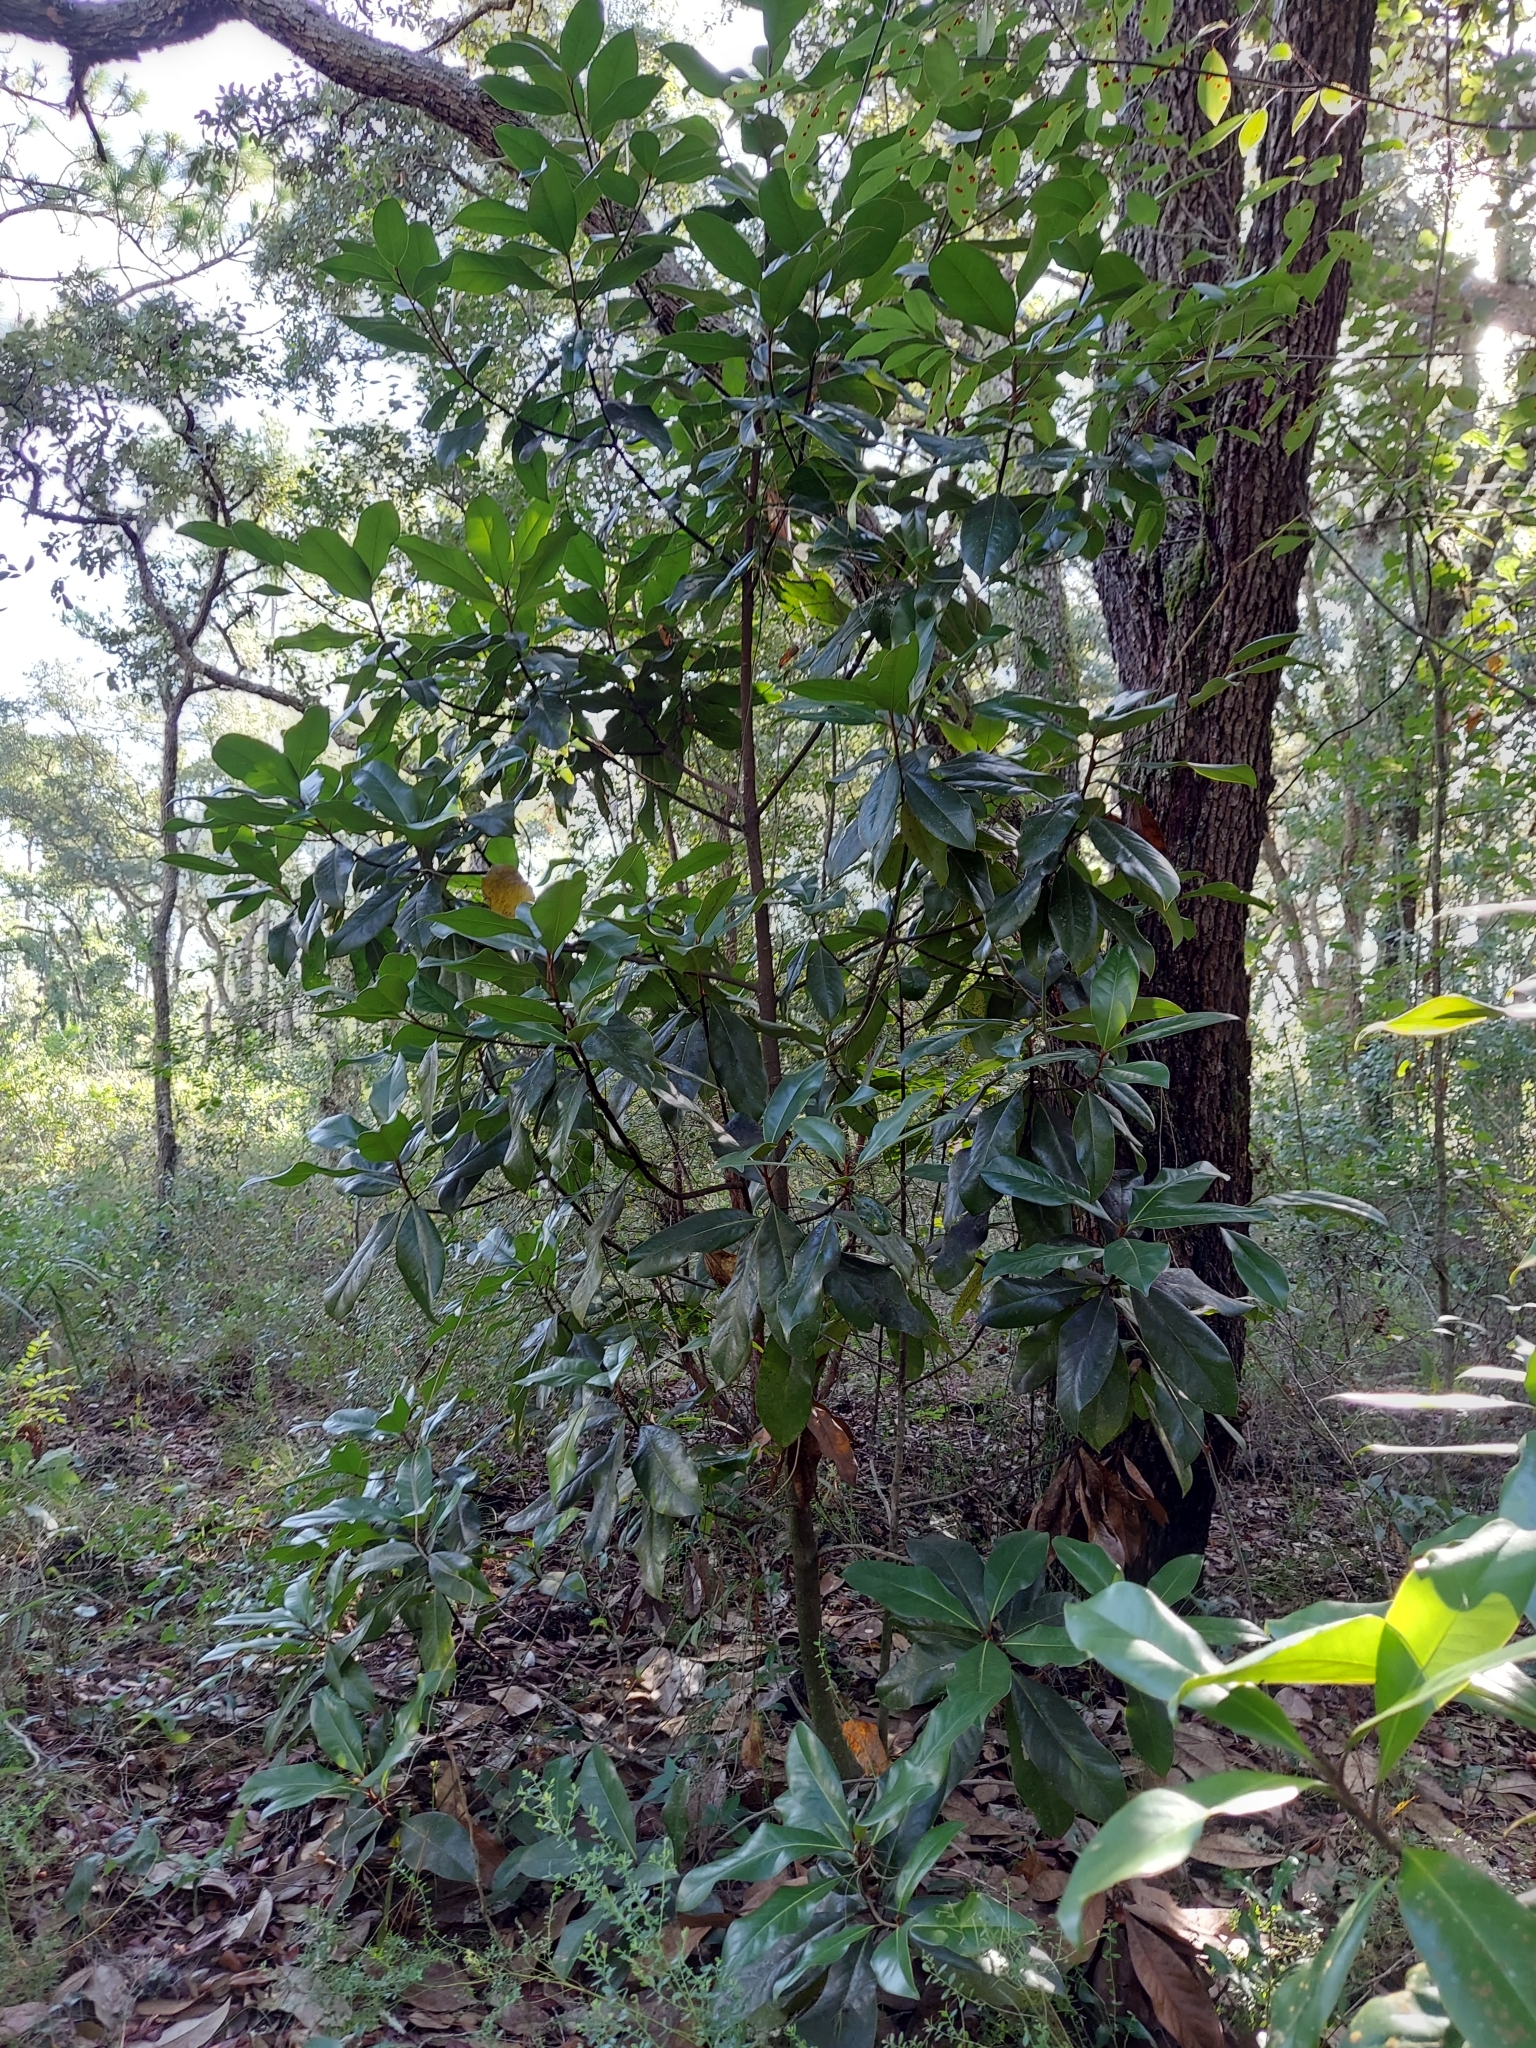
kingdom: Plantae
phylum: Tracheophyta
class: Magnoliopsida
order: Magnoliales
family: Magnoliaceae
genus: Magnolia
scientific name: Magnolia grandiflora
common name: Southern magnolia
